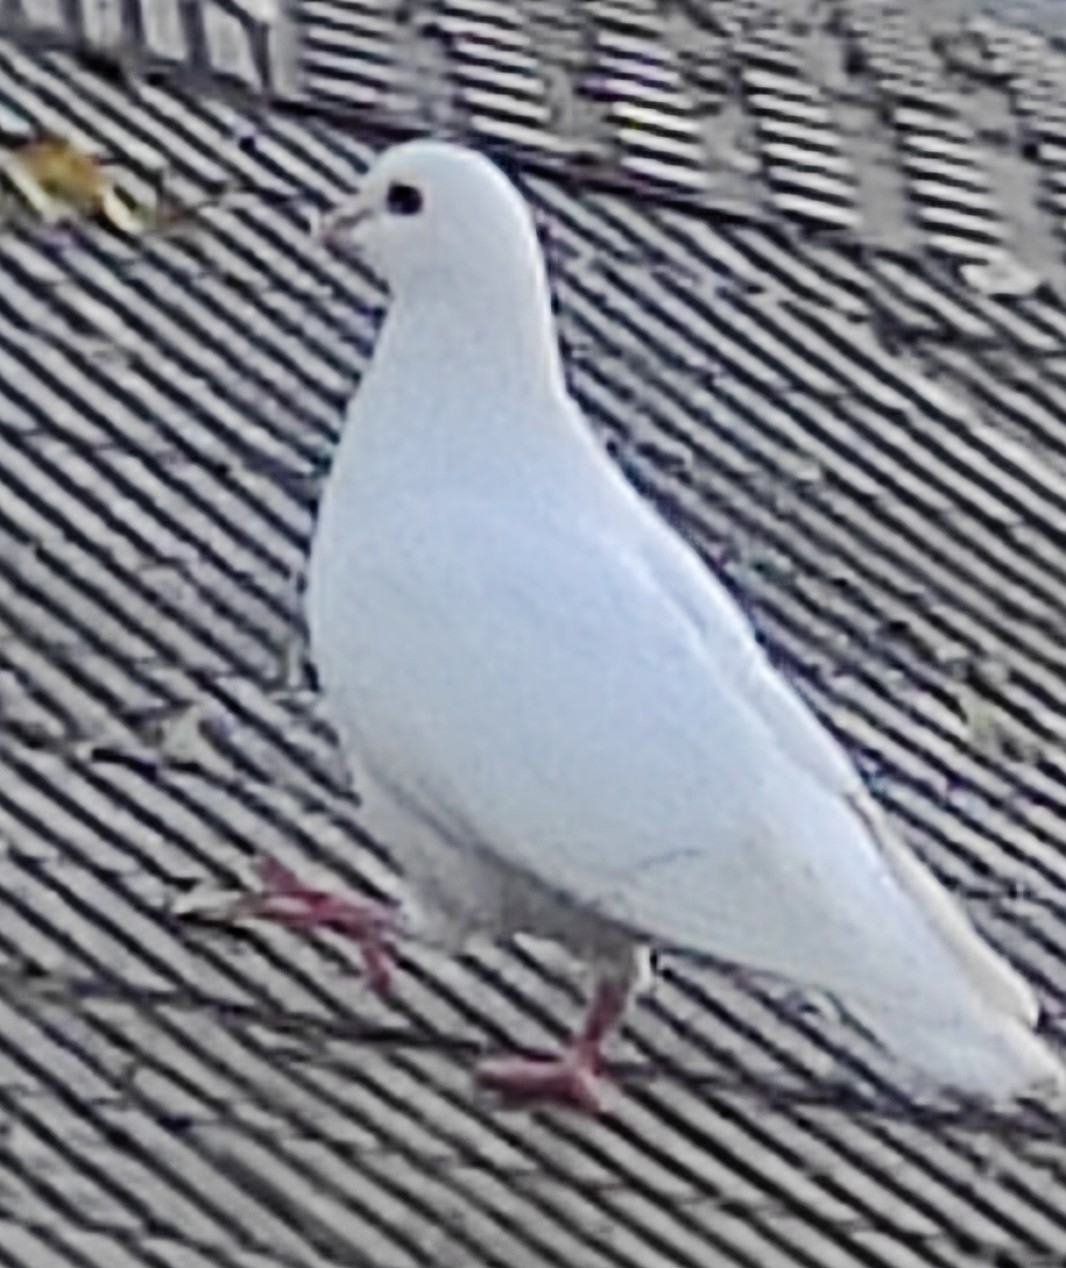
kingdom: Animalia
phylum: Chordata
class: Aves
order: Columbiformes
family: Columbidae
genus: Columba
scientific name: Columba livia
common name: Rock pigeon
